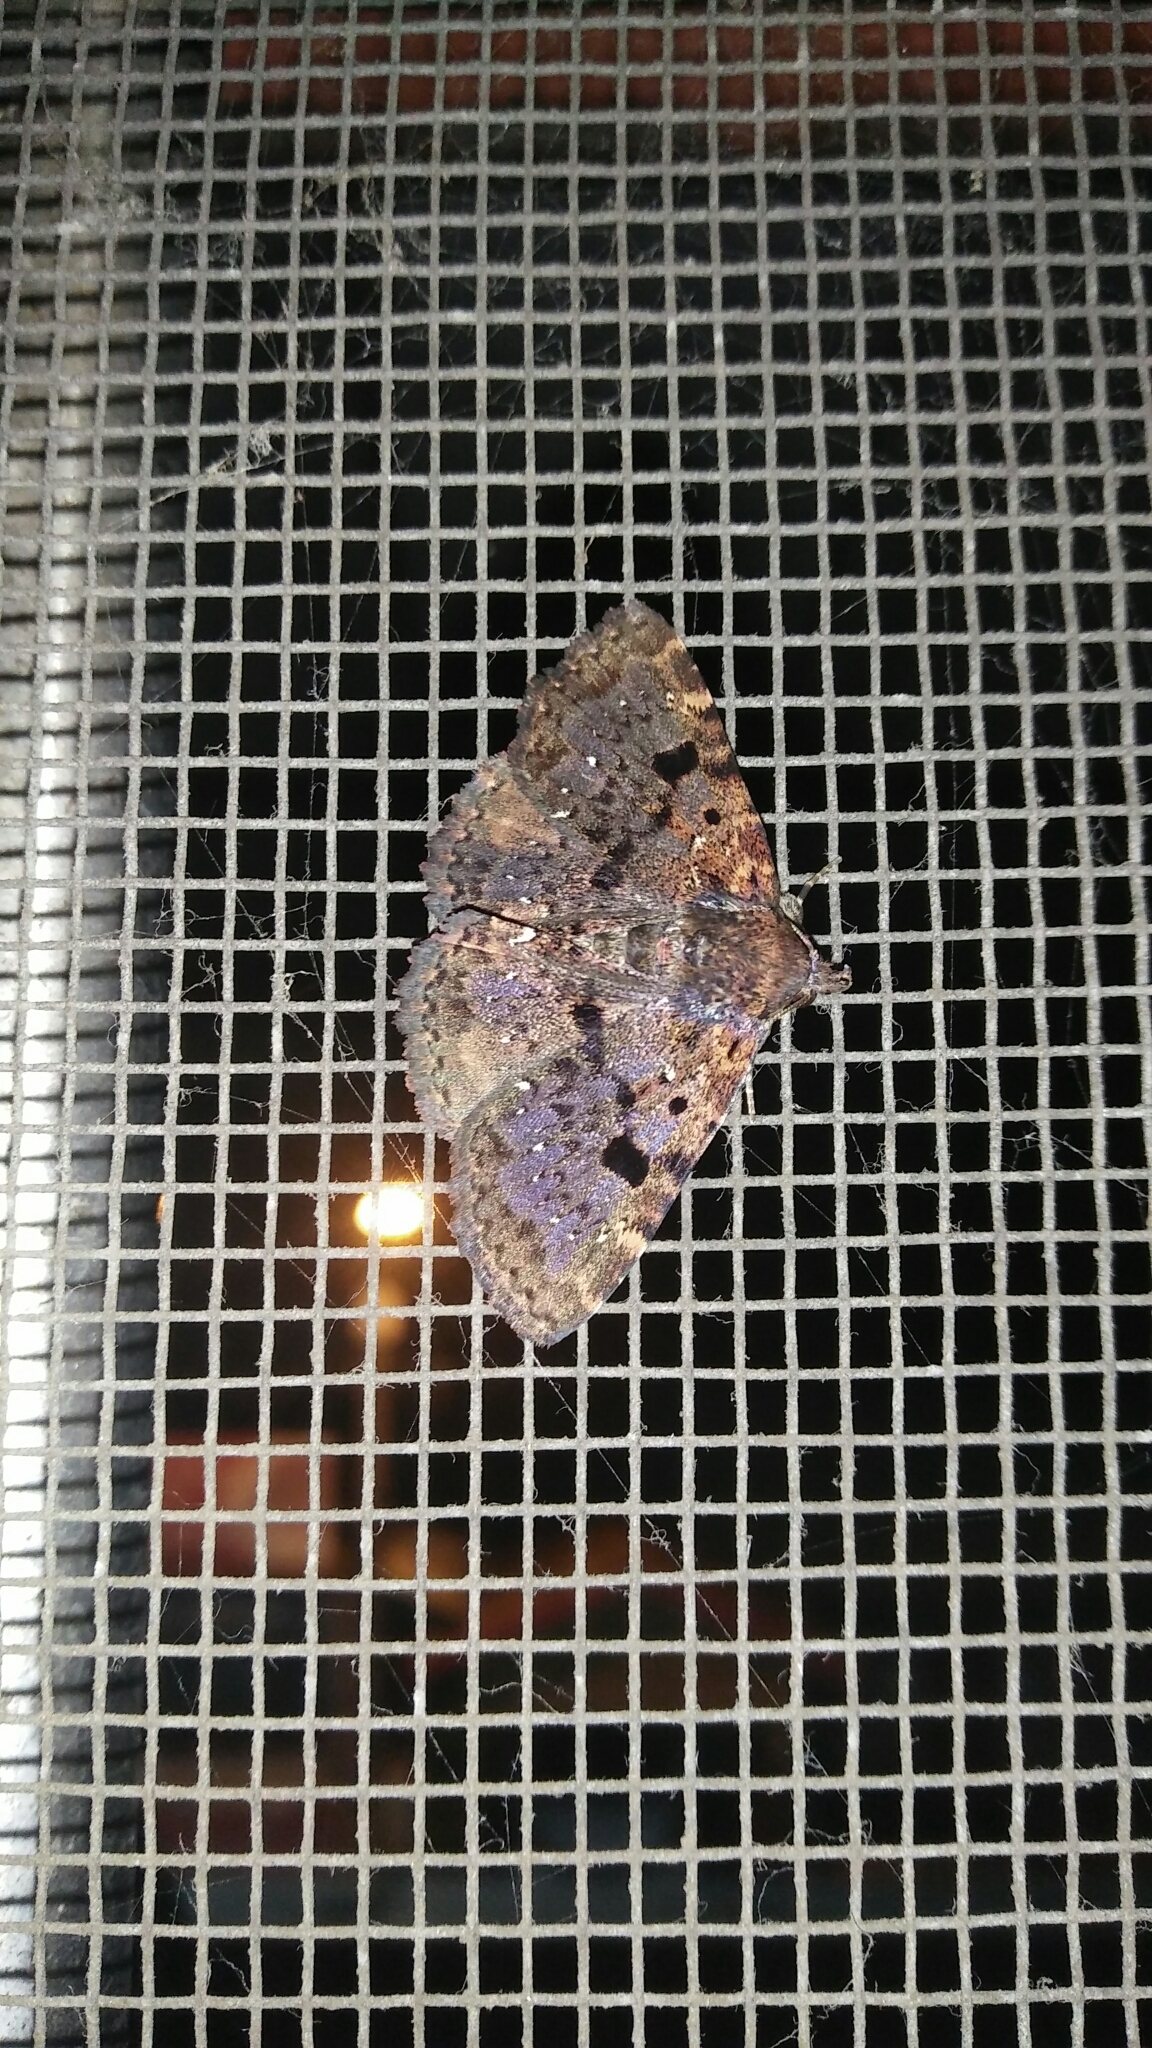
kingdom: Animalia
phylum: Arthropoda
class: Insecta
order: Lepidoptera
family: Erebidae
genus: Diomea
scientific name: Diomea discoinsigna
